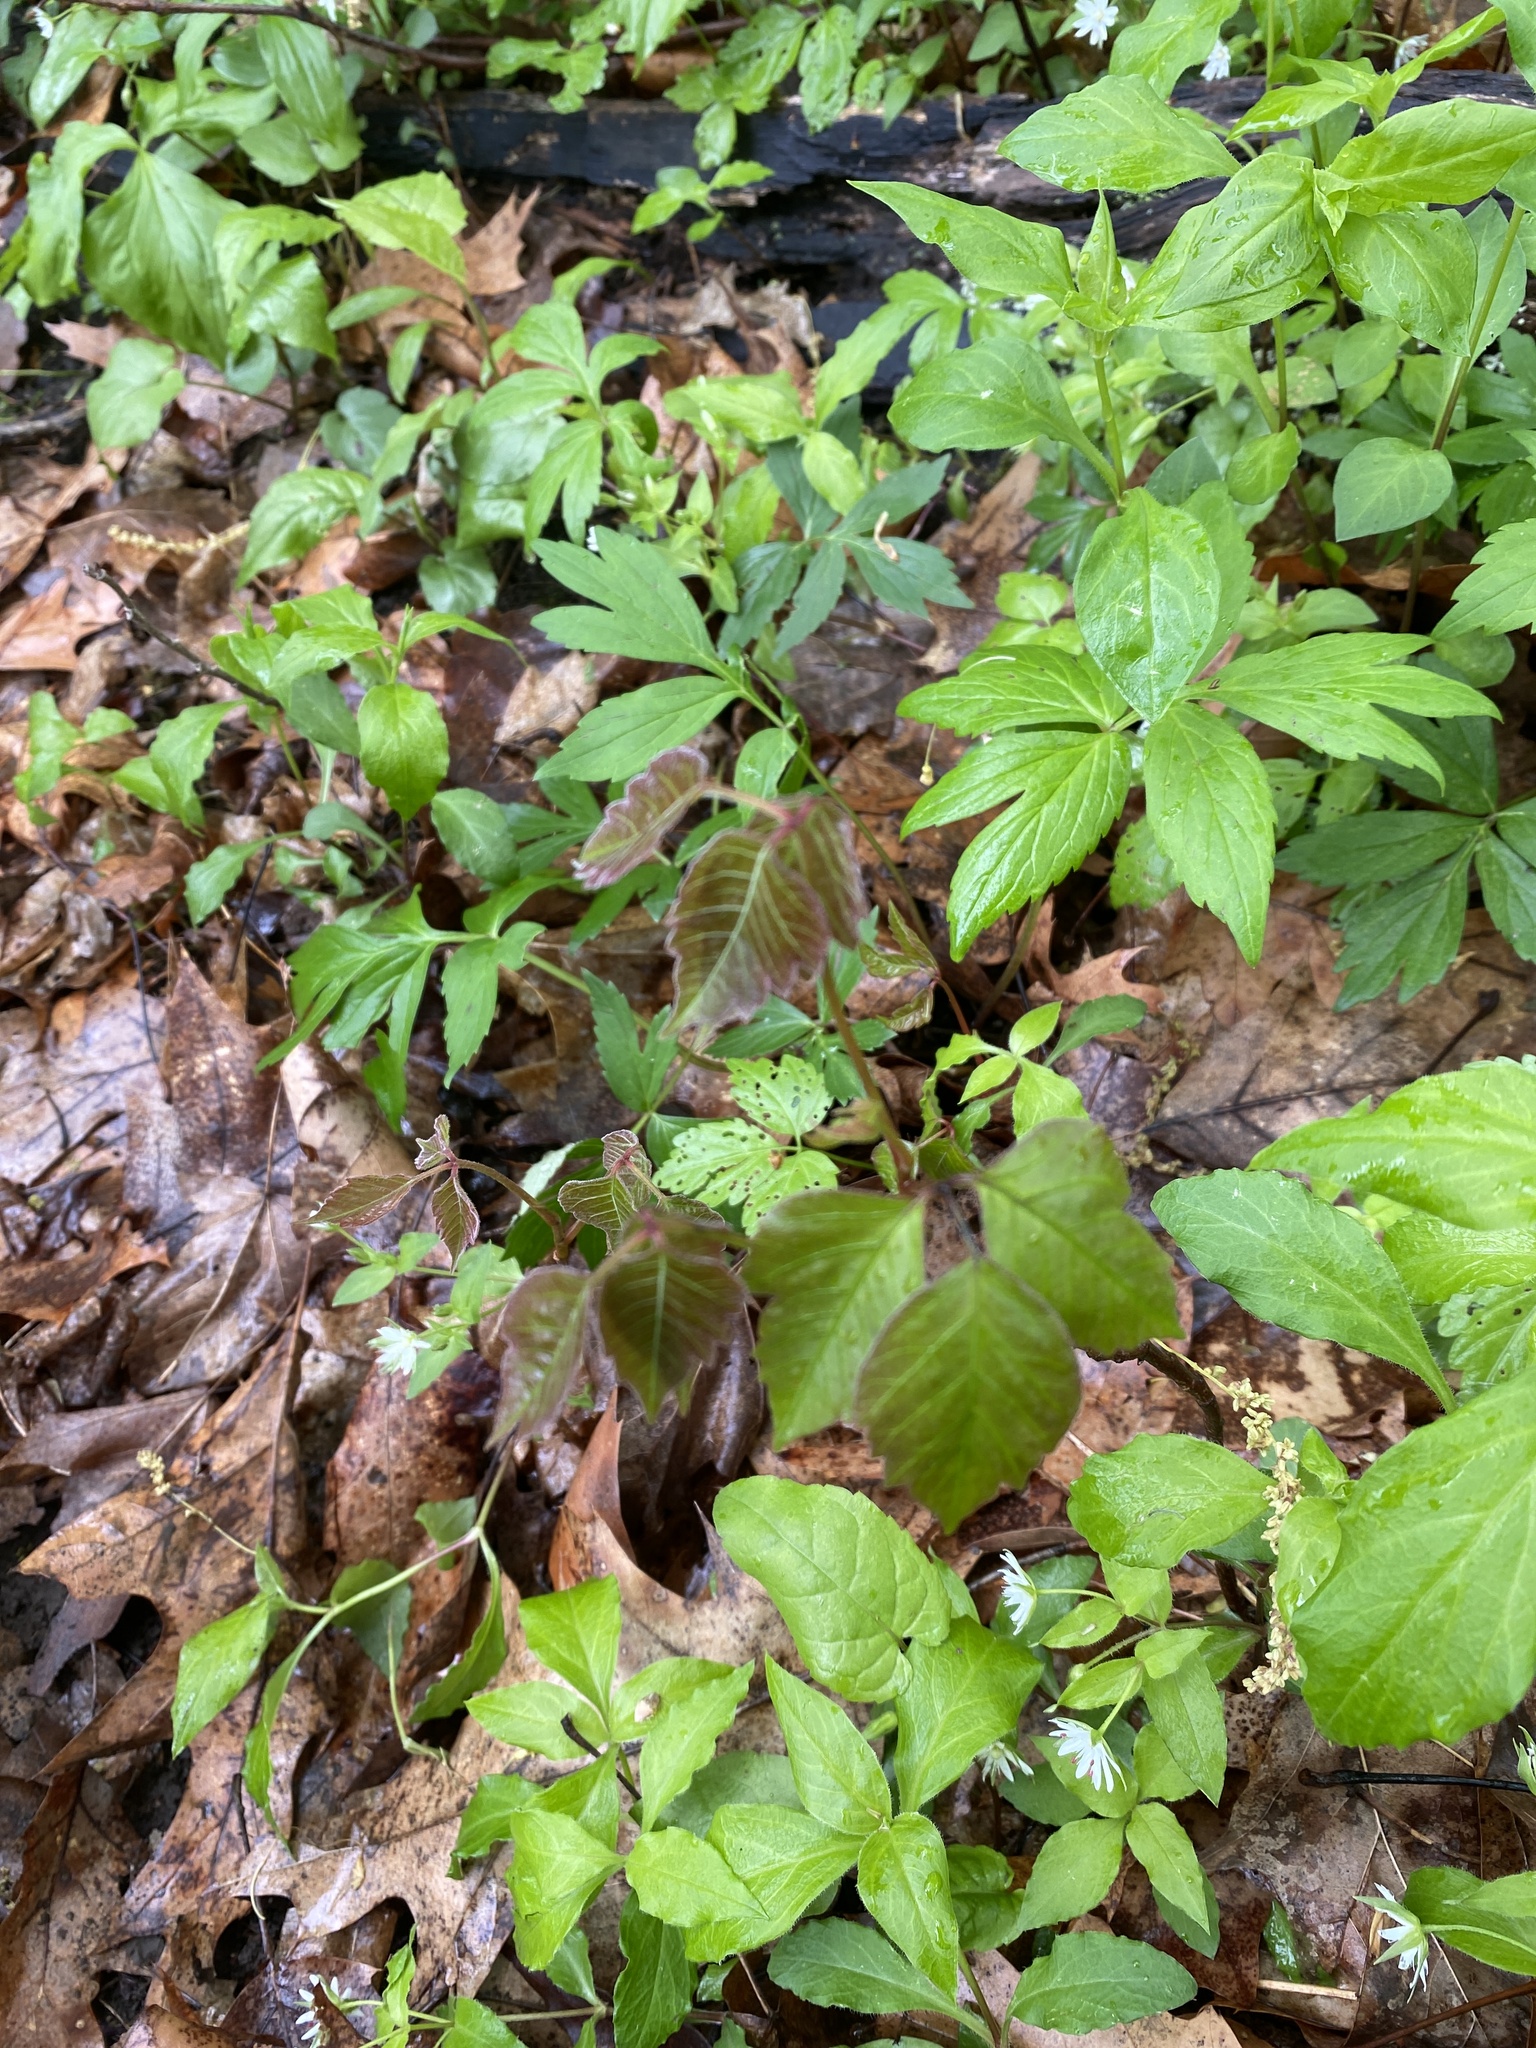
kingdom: Plantae
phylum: Tracheophyta
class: Magnoliopsida
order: Sapindales
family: Anacardiaceae
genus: Toxicodendron
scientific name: Toxicodendron radicans
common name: Poison ivy
